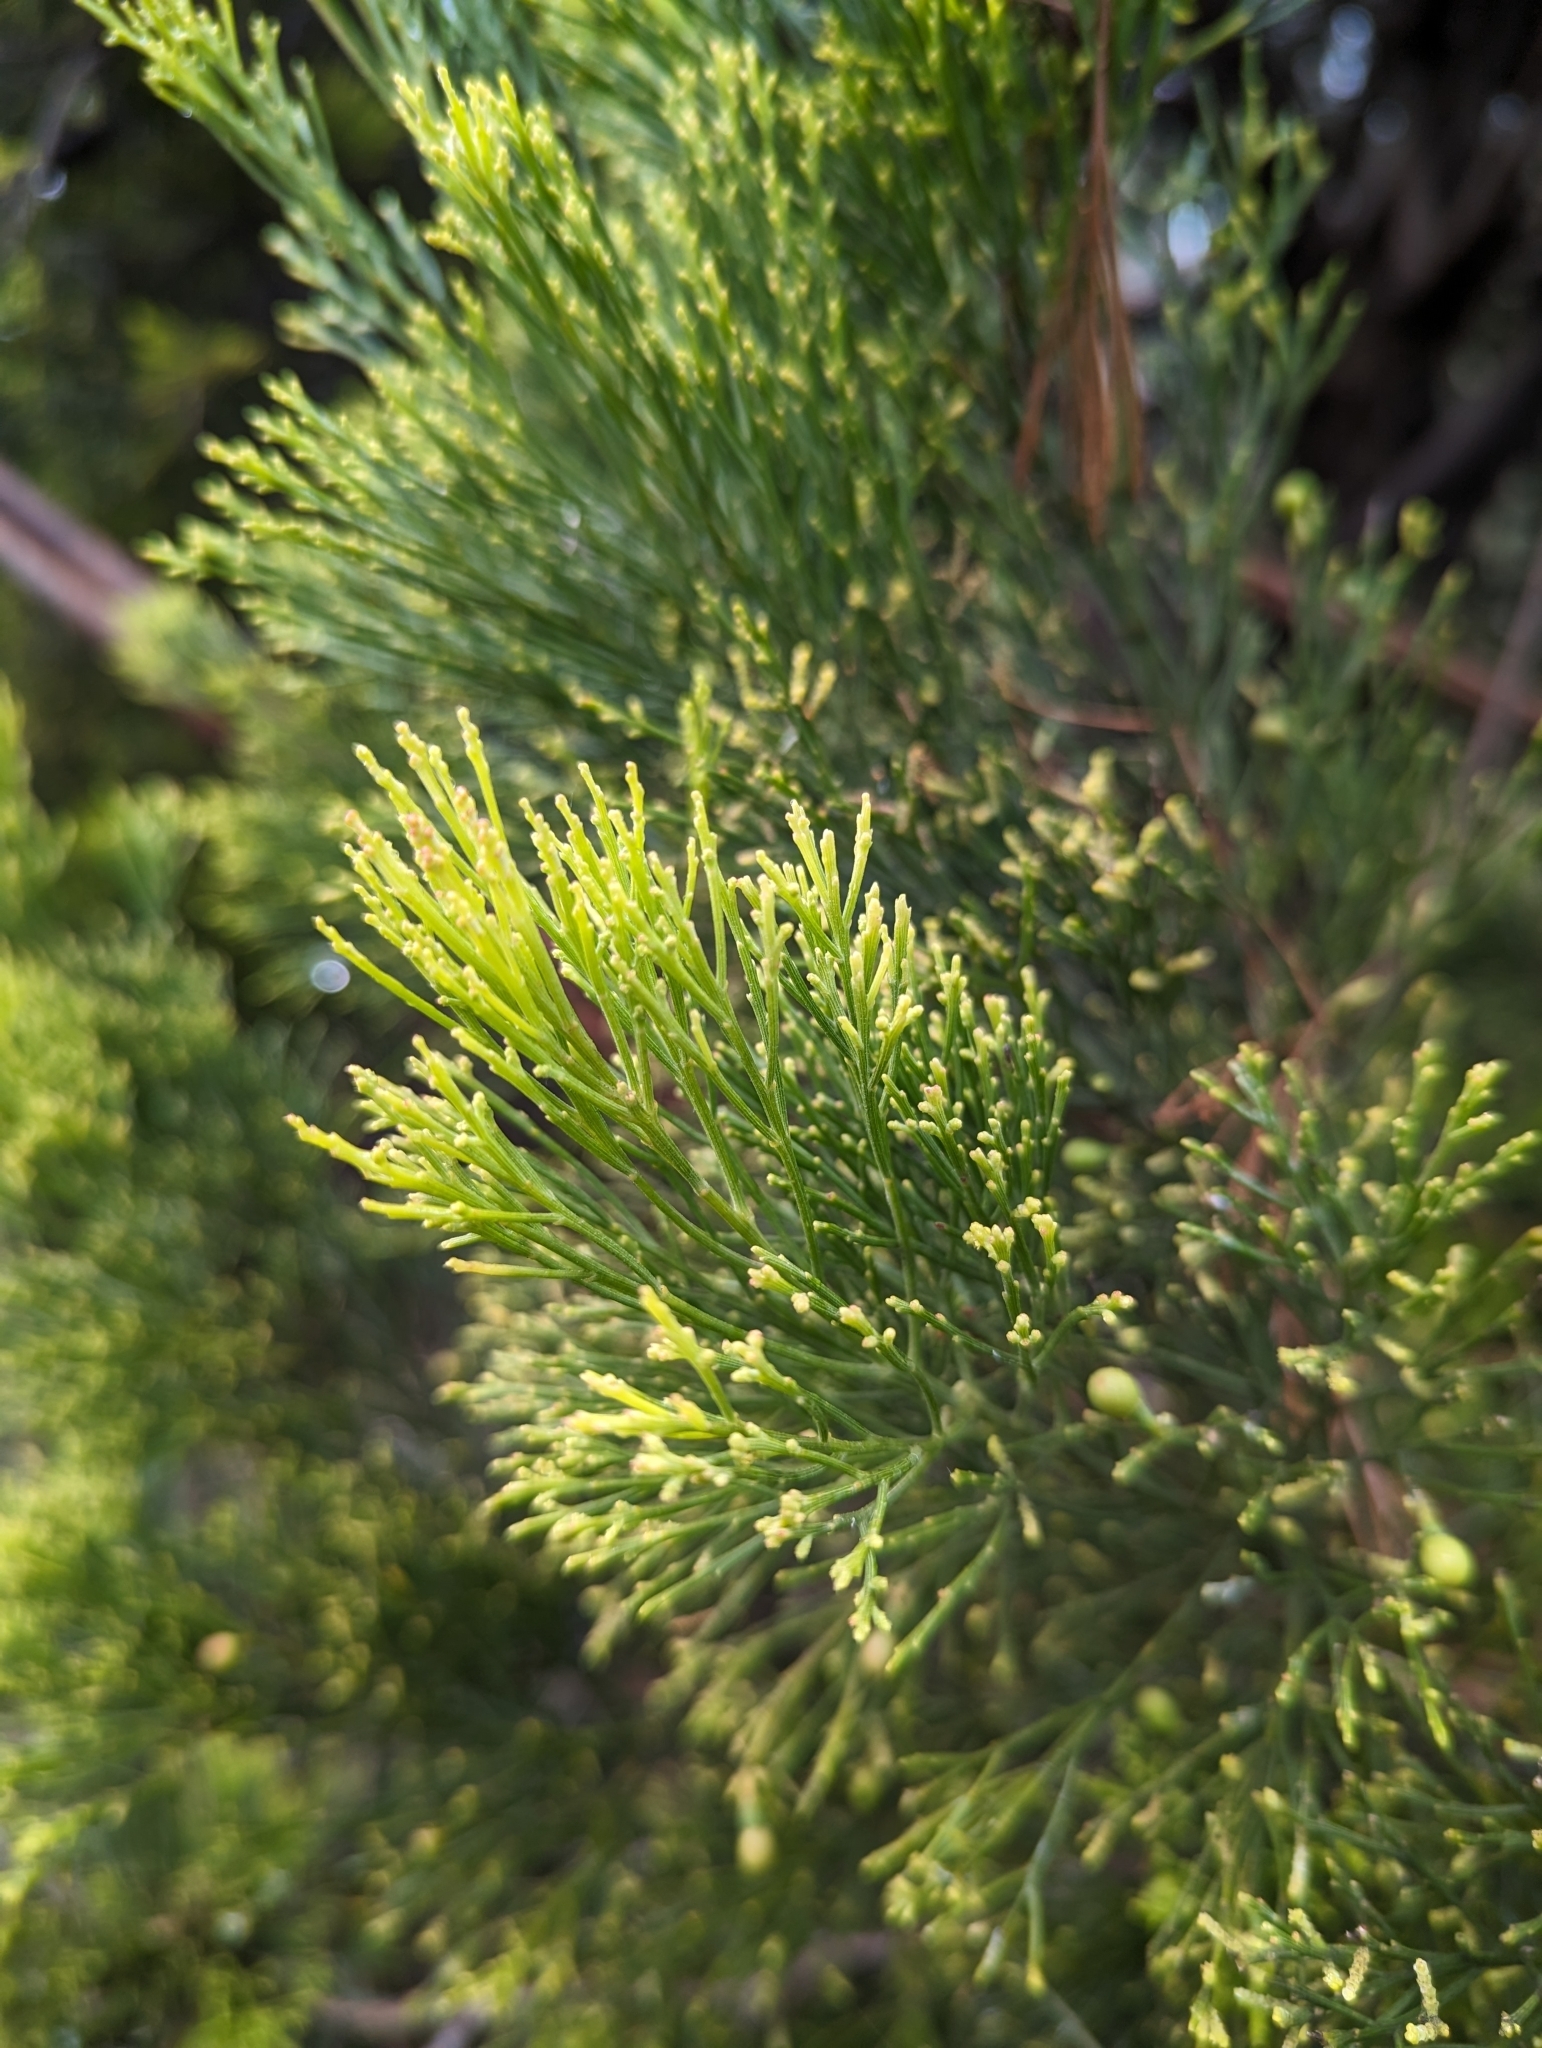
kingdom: Plantae
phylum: Tracheophyta
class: Magnoliopsida
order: Santalales
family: Santalaceae
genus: Exocarpos
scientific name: Exocarpos cupressiformis
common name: Cherry ballart
